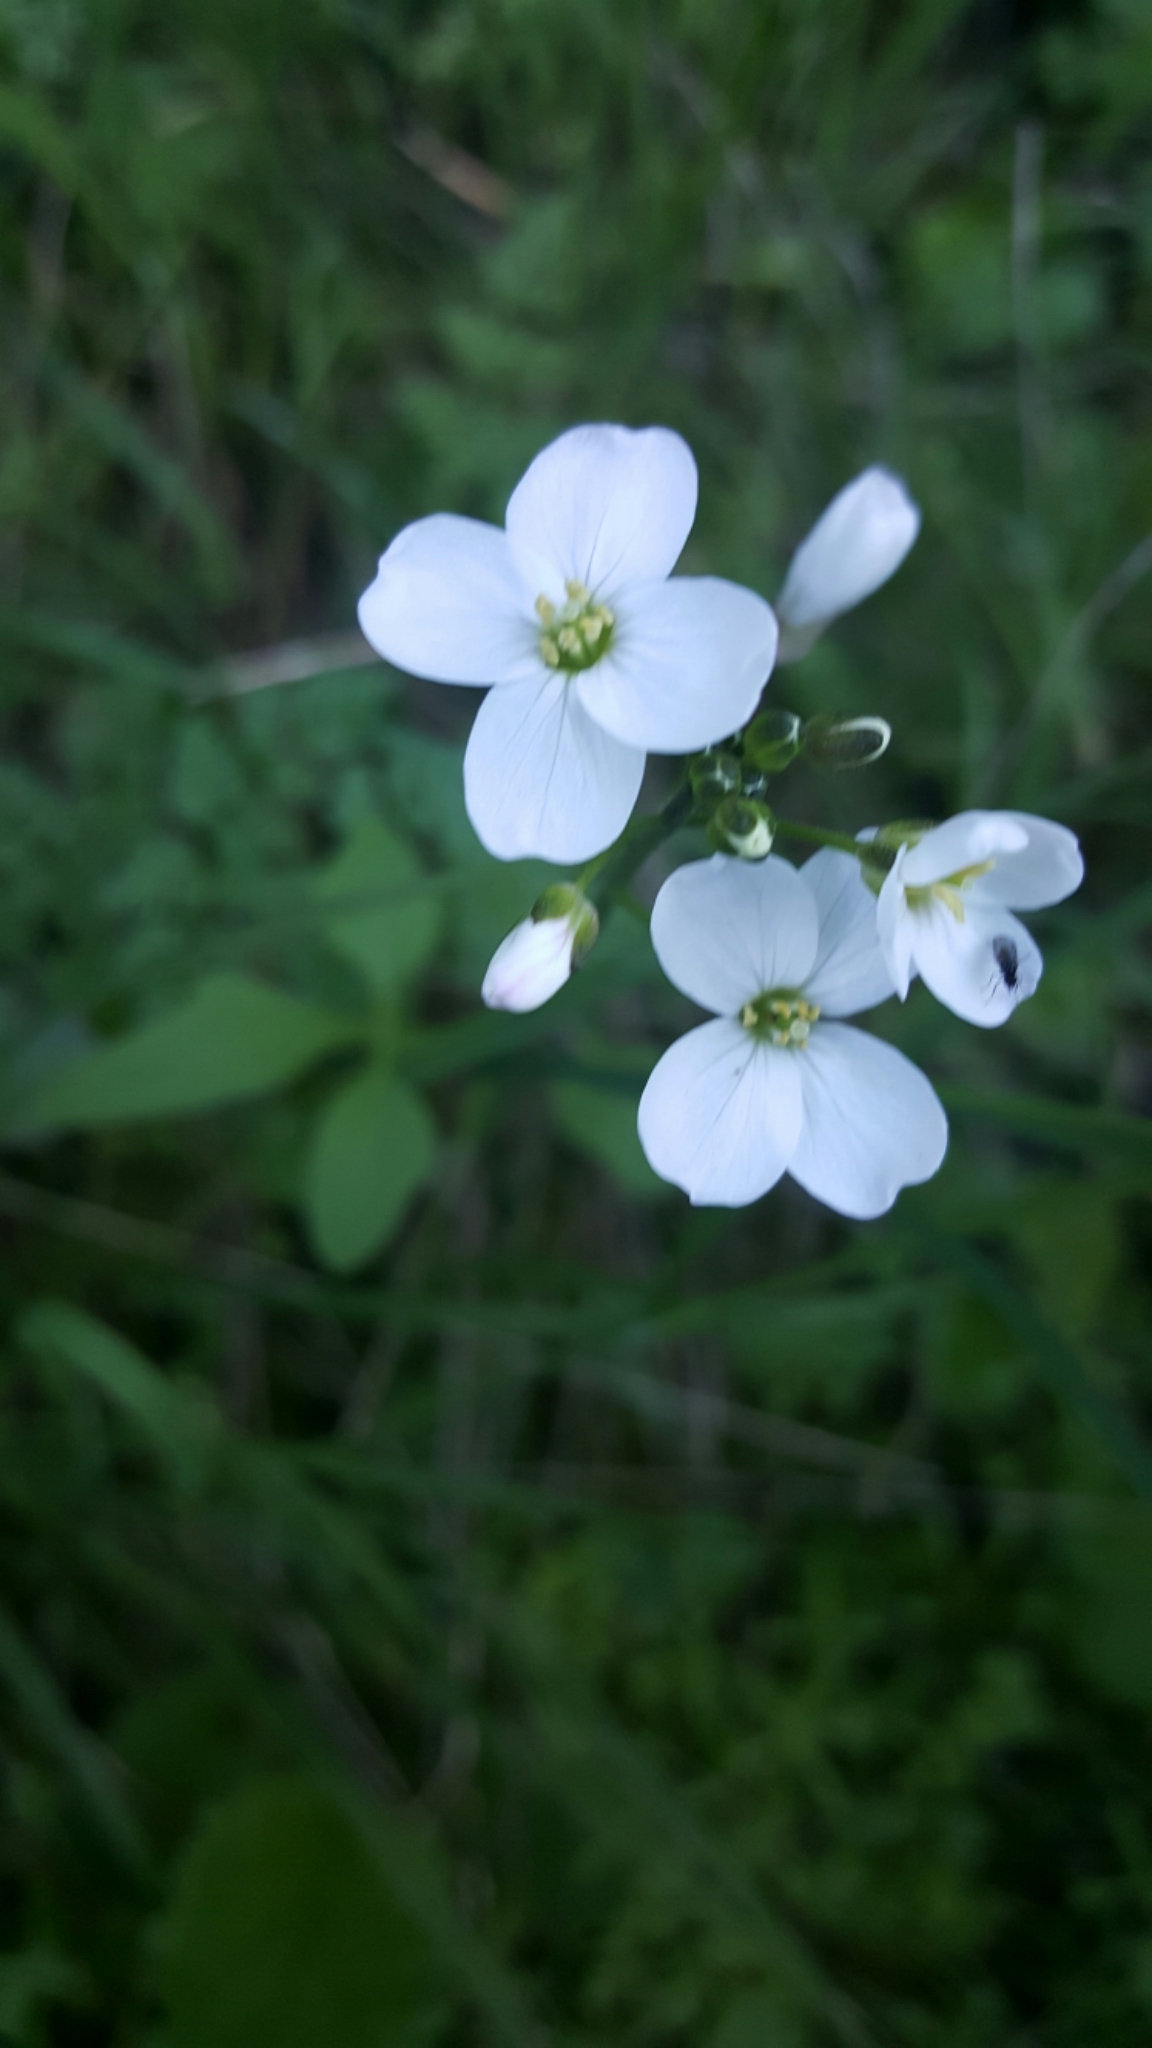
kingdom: Plantae
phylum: Tracheophyta
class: Magnoliopsida
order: Brassicales
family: Brassicaceae
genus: Cardamine
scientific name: Cardamine californica
